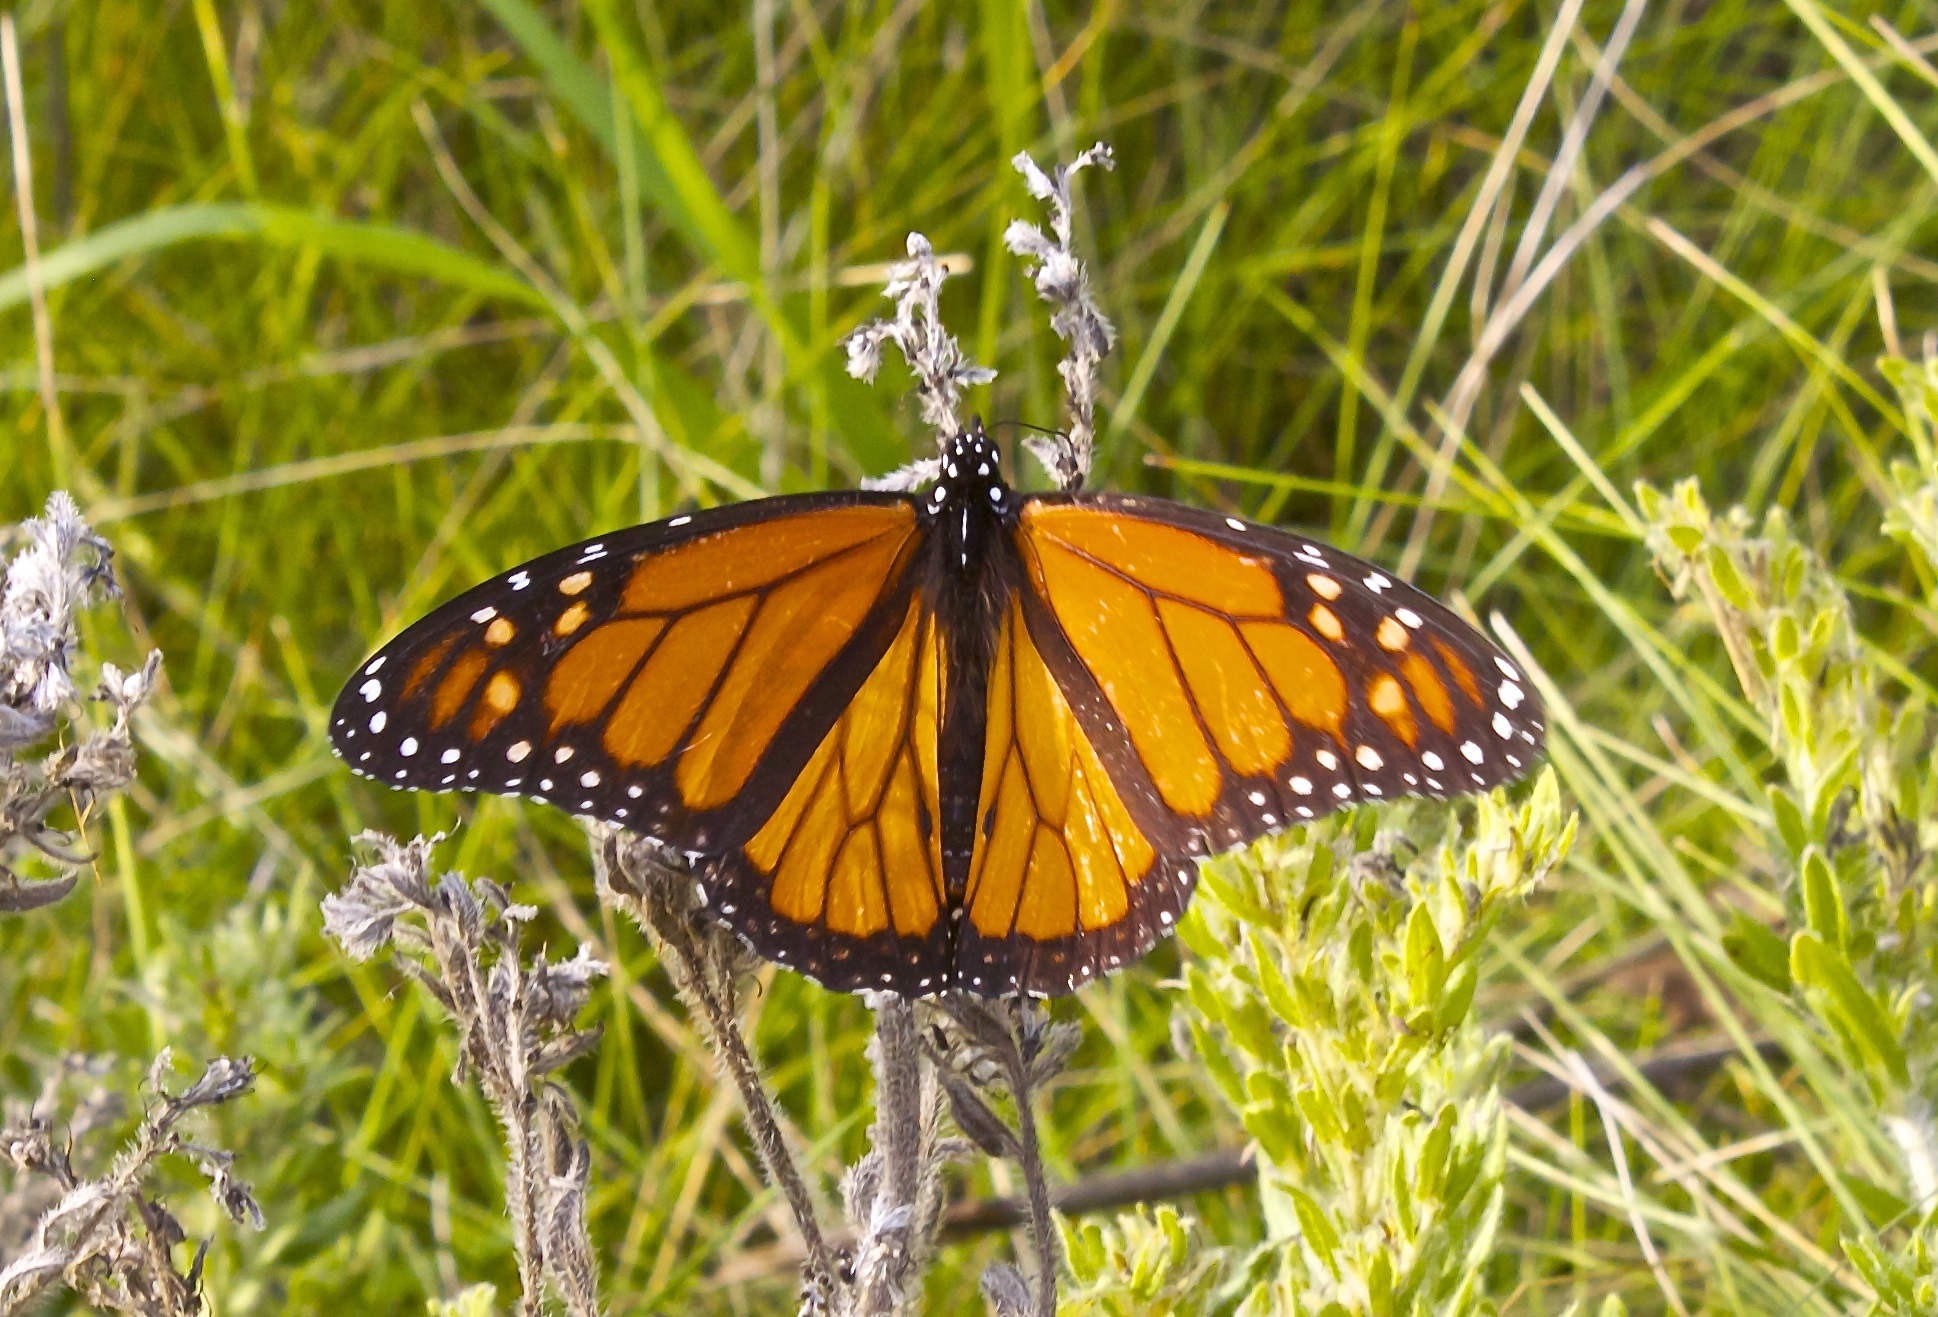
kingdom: Animalia
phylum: Arthropoda
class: Insecta
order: Lepidoptera
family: Nymphalidae
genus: Danaus
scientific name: Danaus plexippus
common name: Monarch
